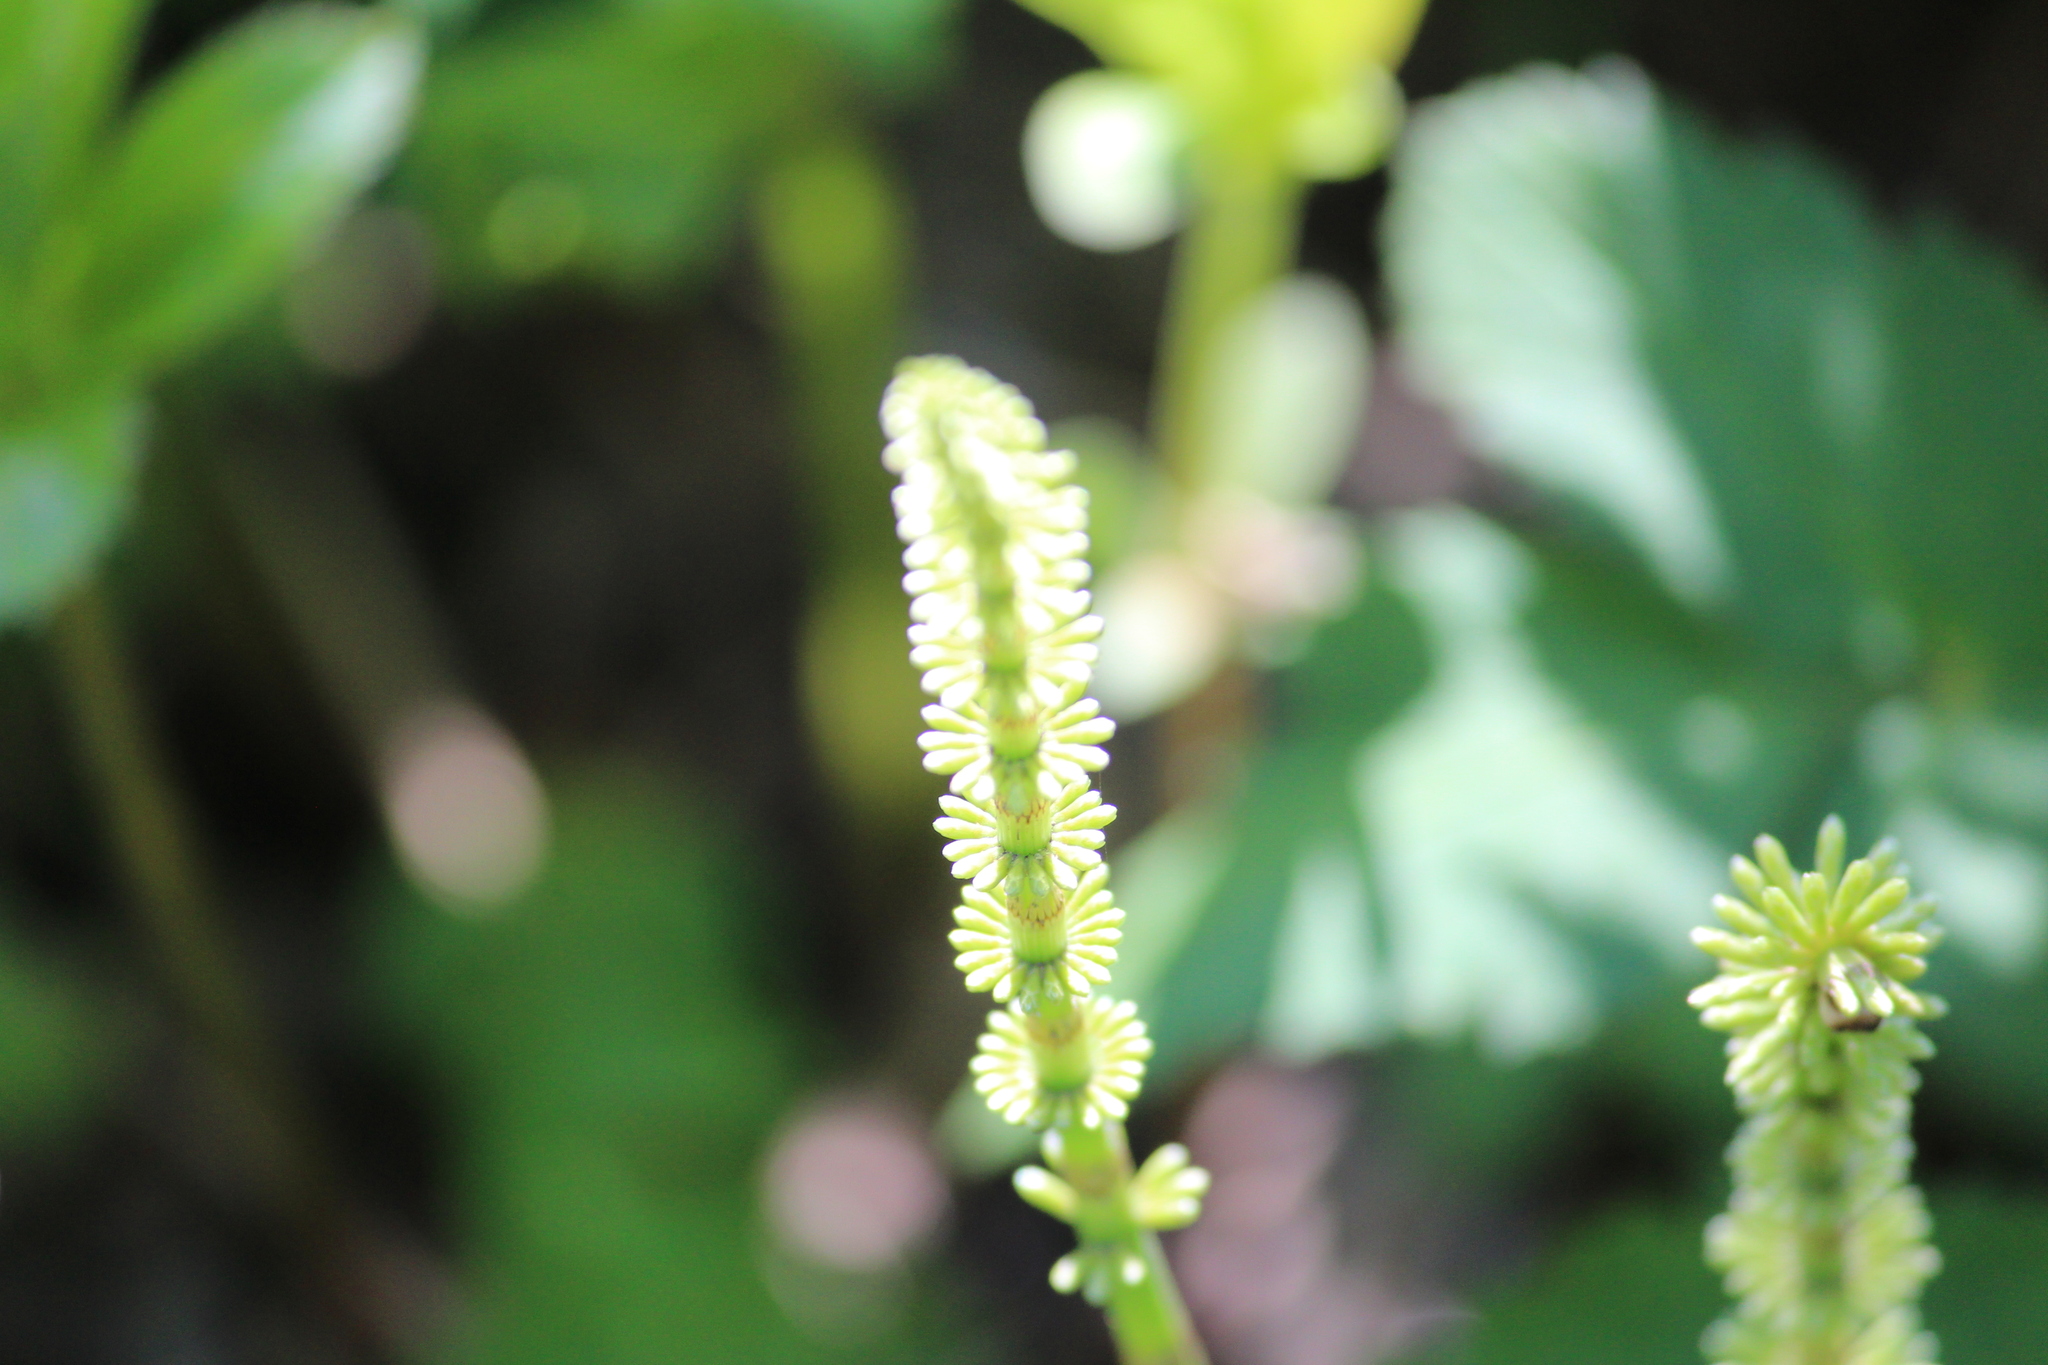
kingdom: Plantae
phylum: Tracheophyta
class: Polypodiopsida
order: Equisetales
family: Equisetaceae
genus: Equisetum
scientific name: Equisetum pratense
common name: Meadow horsetail
